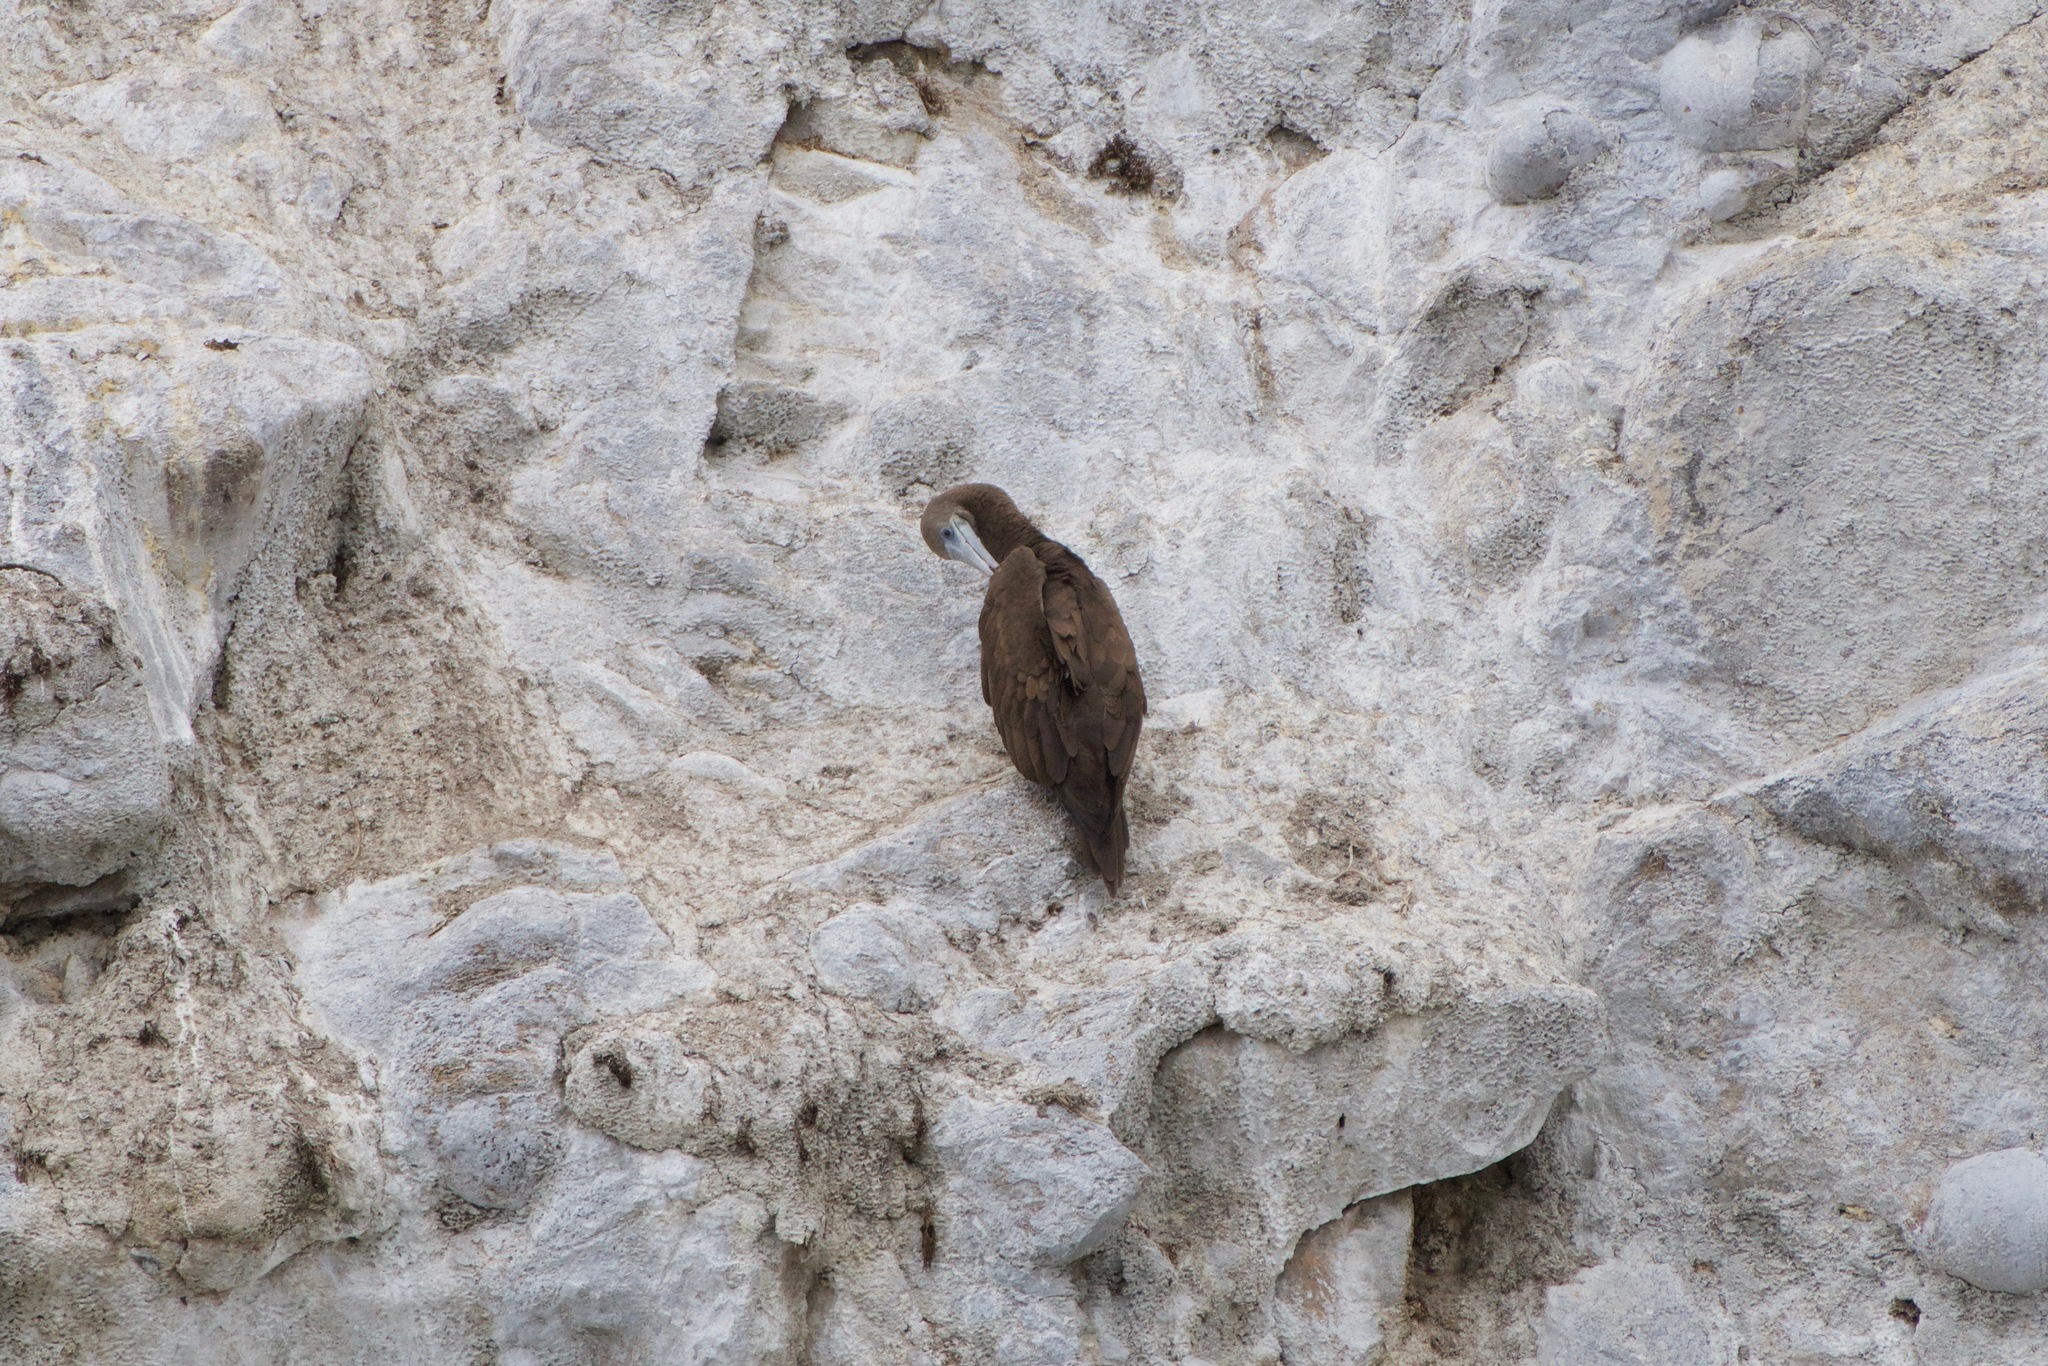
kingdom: Animalia
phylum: Chordata
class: Aves
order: Suliformes
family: Sulidae
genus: Sula
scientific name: Sula leucogaster
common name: Brown booby
